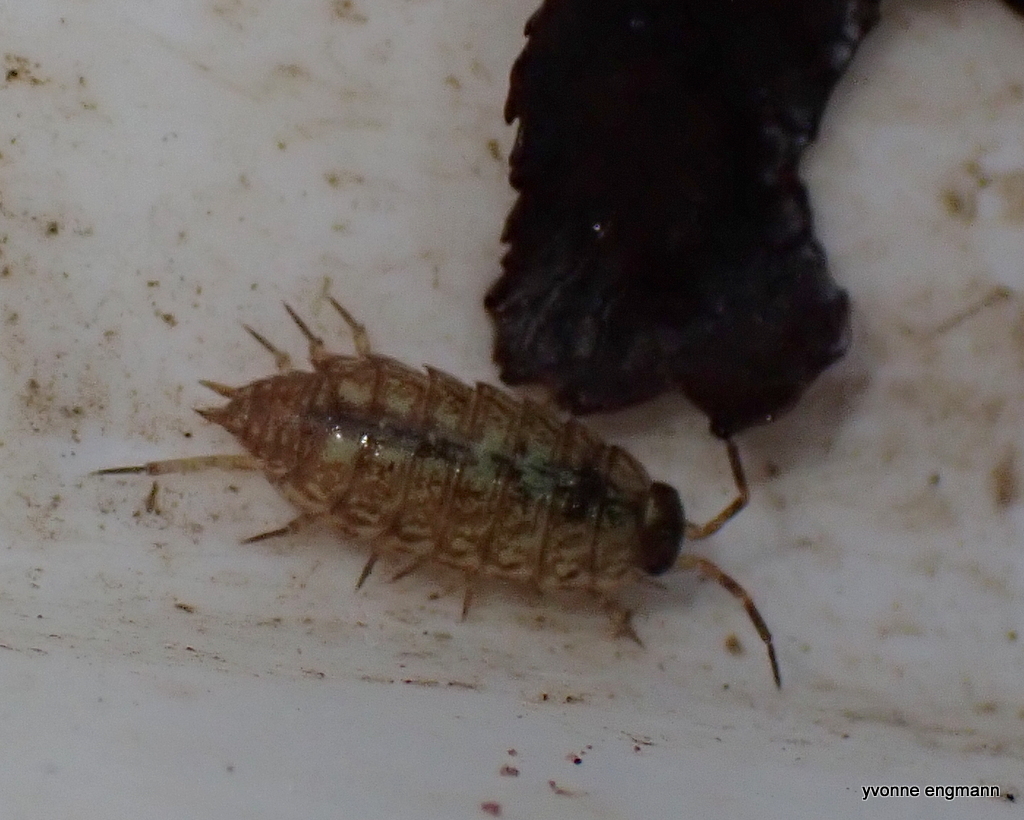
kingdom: Animalia
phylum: Arthropoda
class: Malacostraca
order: Isopoda
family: Philosciidae
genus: Philoscia
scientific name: Philoscia muscorum
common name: Common striped woodlouse
